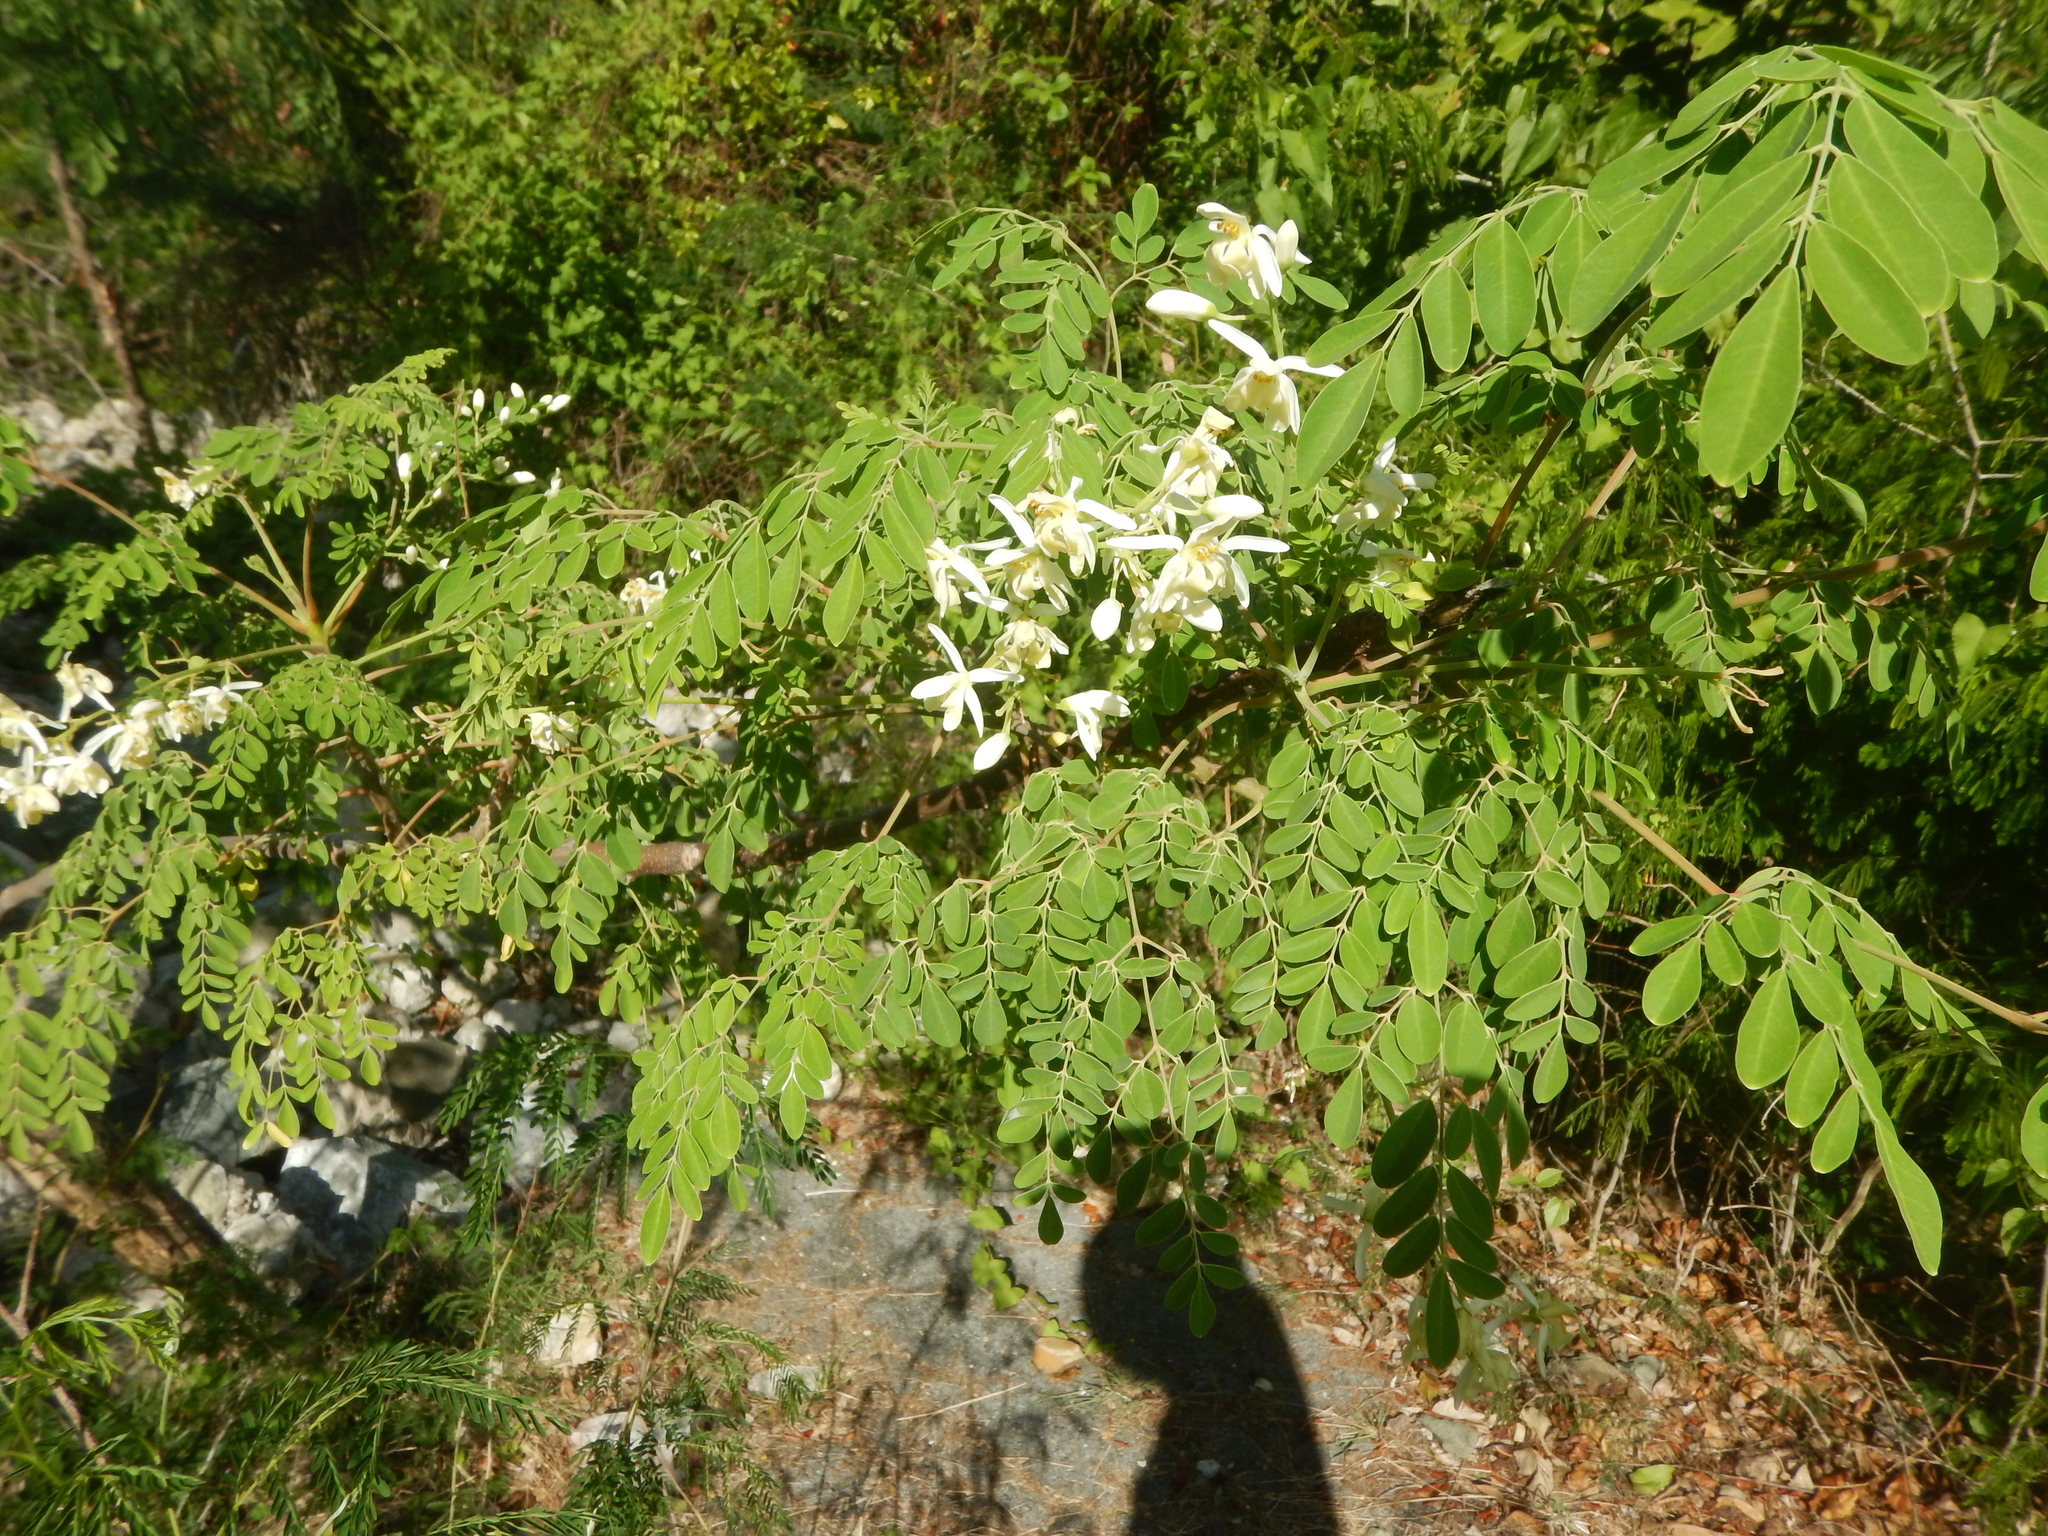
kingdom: Plantae
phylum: Tracheophyta
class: Magnoliopsida
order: Brassicales
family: Moringaceae
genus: Moringa
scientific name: Moringa oleifera
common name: Horseradish-tree
